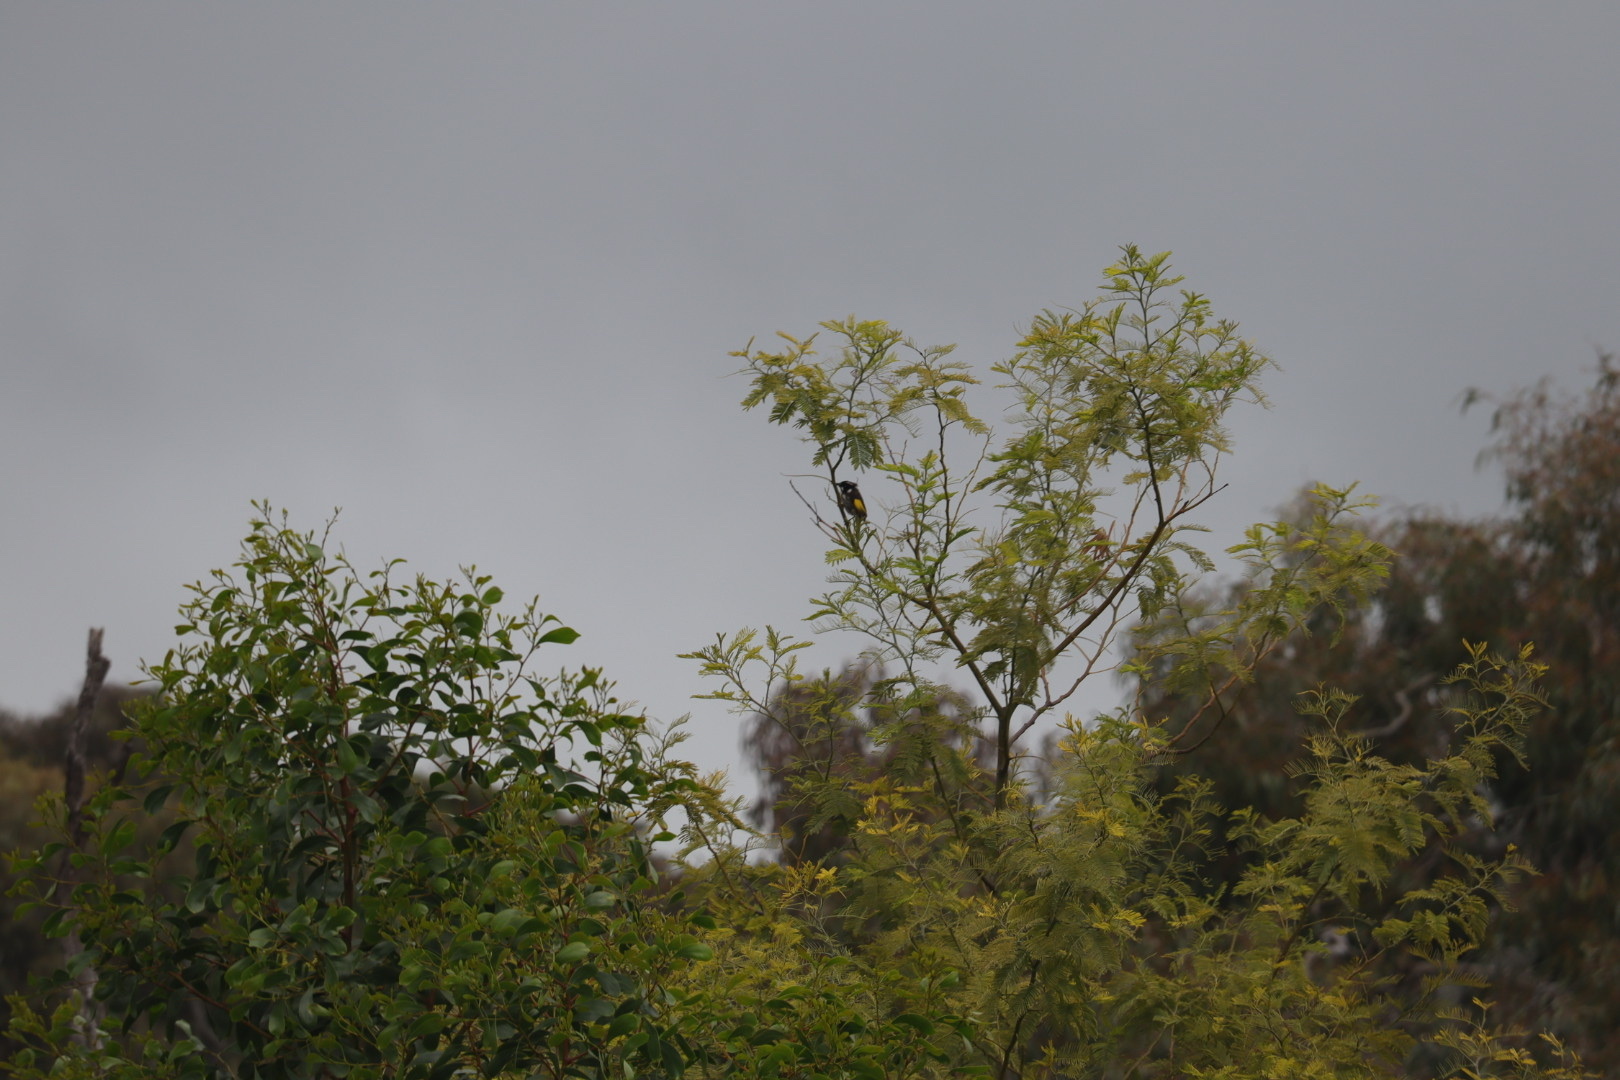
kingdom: Animalia
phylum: Chordata
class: Aves
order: Passeriformes
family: Meliphagidae
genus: Phylidonyris
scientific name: Phylidonyris novaehollandiae
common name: New holland honeyeater
